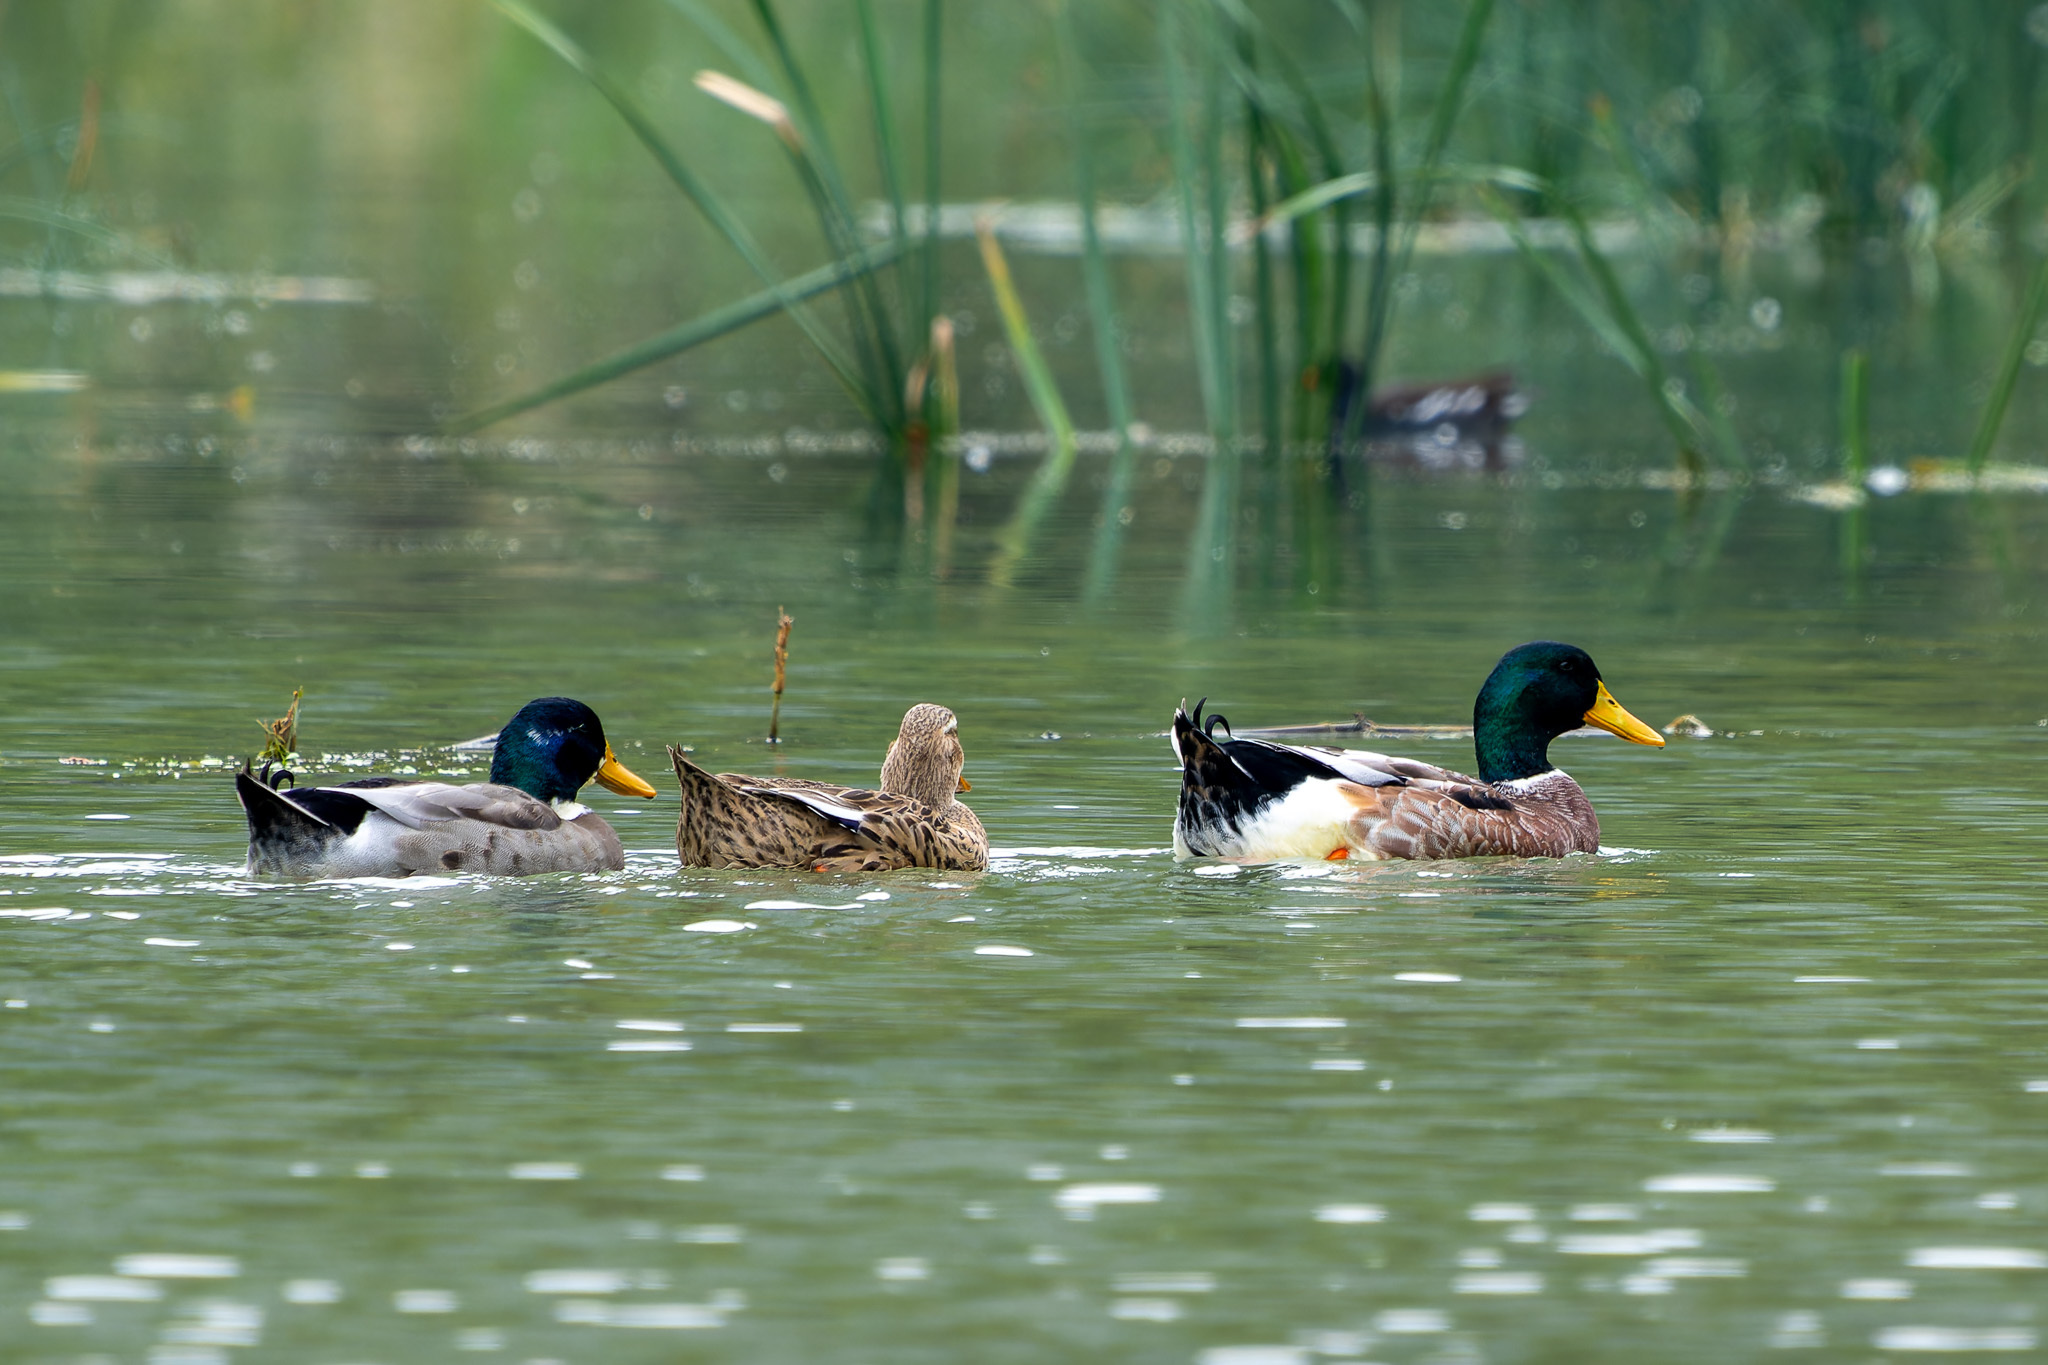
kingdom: Animalia
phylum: Chordata
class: Aves
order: Anseriformes
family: Anatidae
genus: Anas
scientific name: Anas platyrhynchos
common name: Mallard
